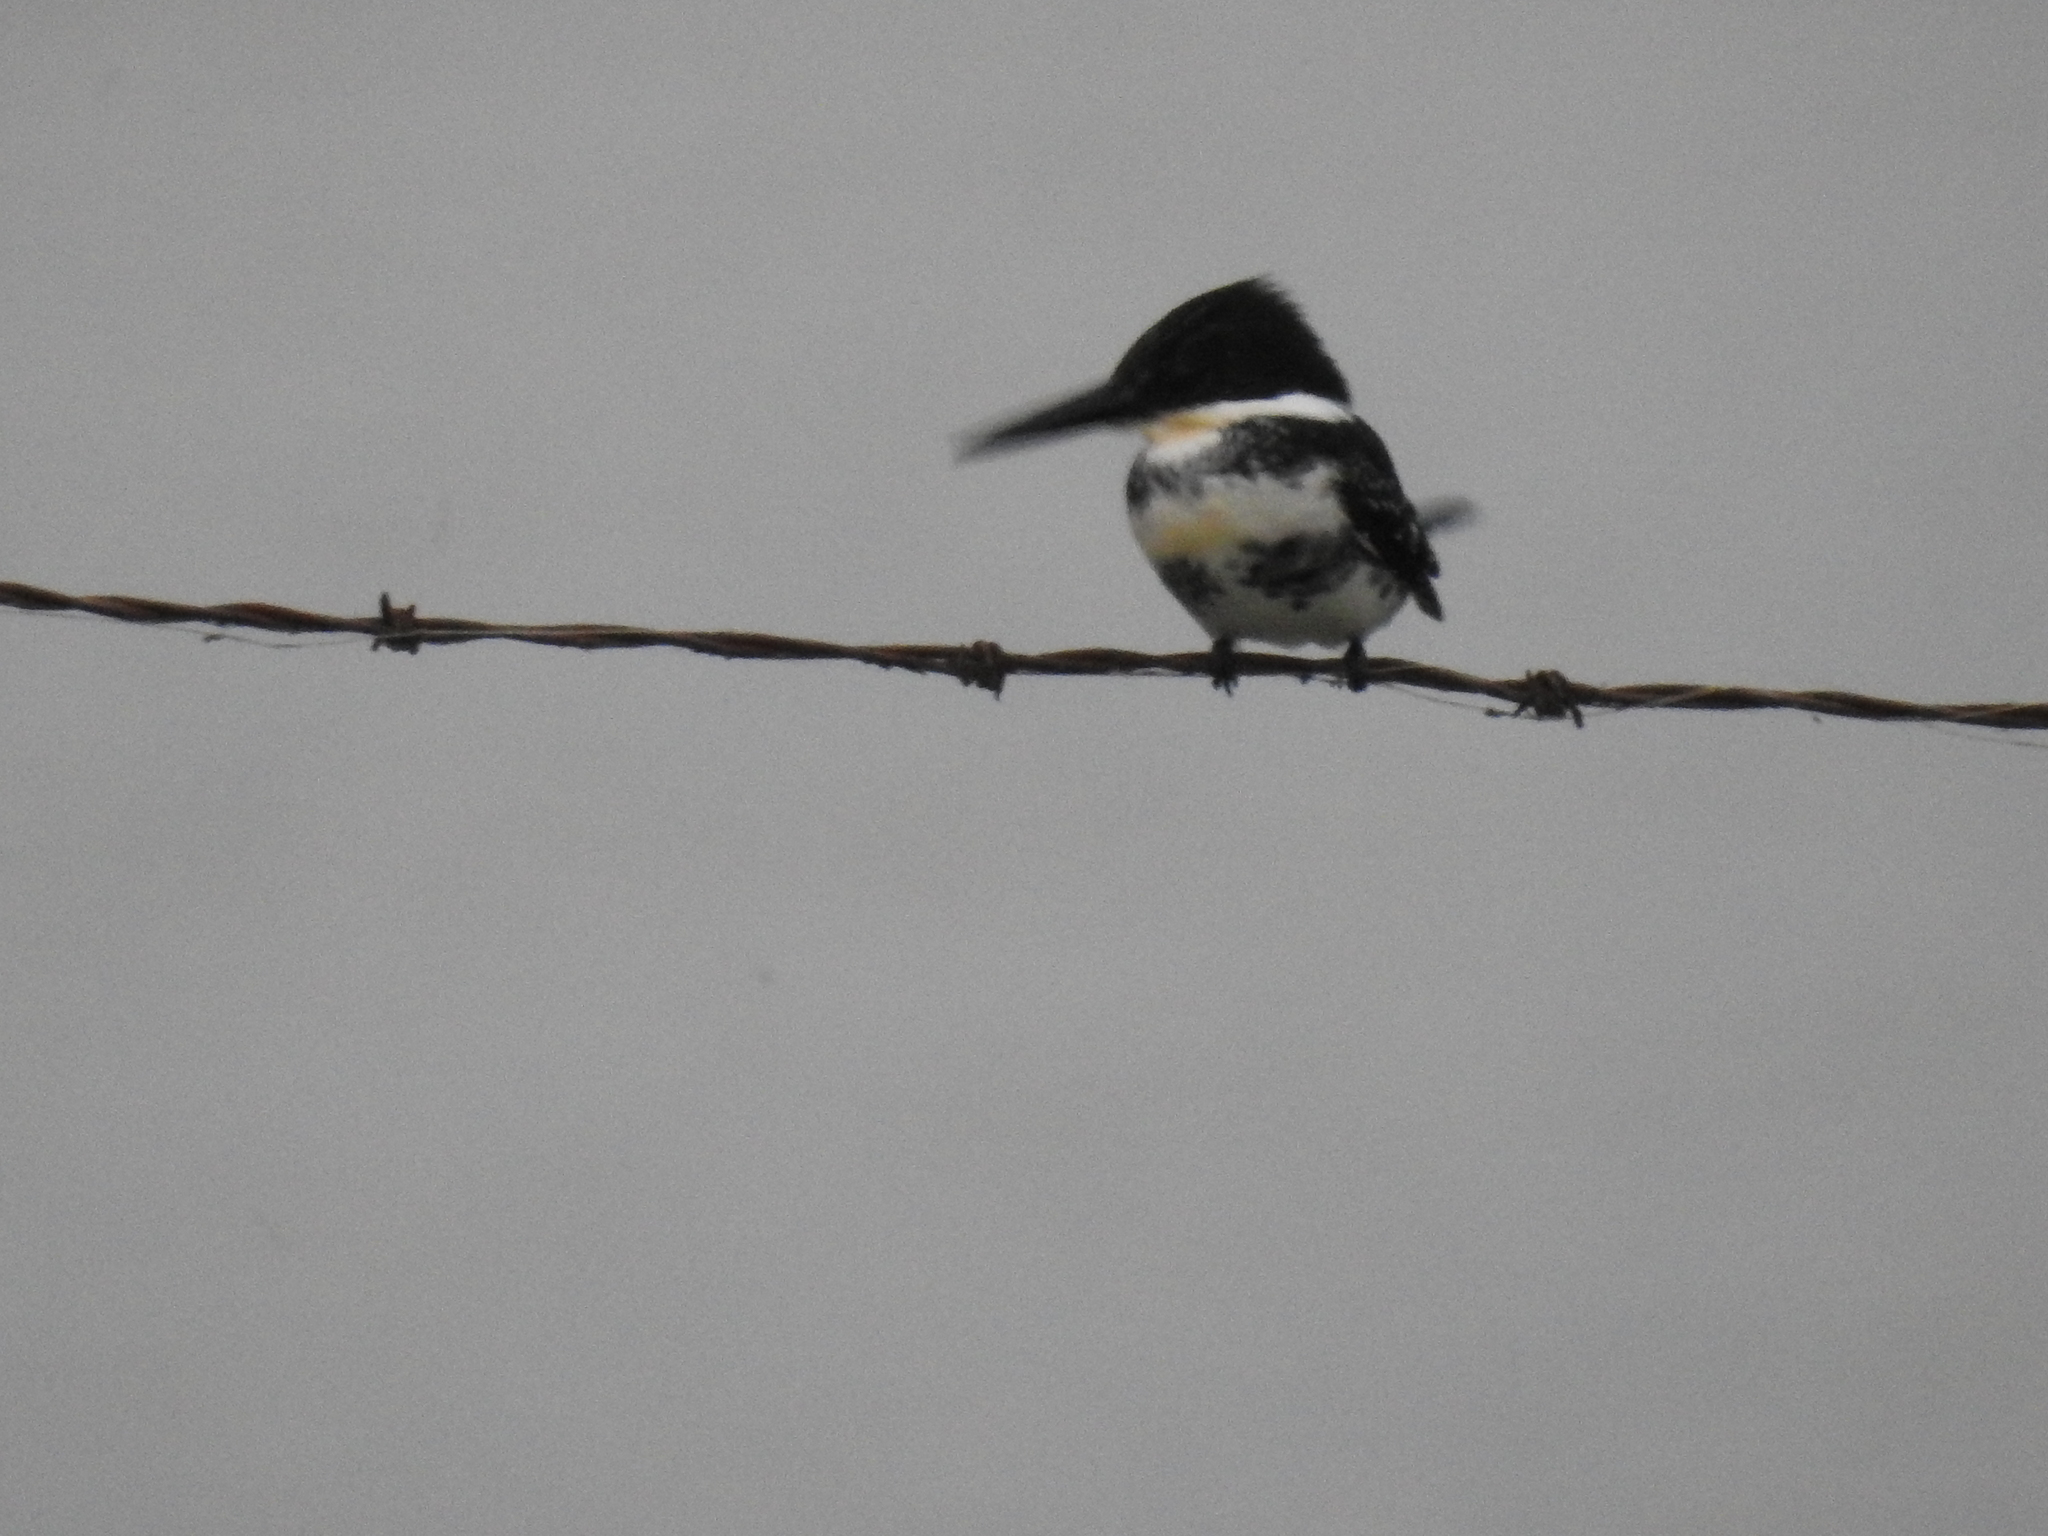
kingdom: Animalia
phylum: Chordata
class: Aves
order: Coraciiformes
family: Alcedinidae
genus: Chloroceryle
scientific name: Chloroceryle americana
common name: Green kingfisher
